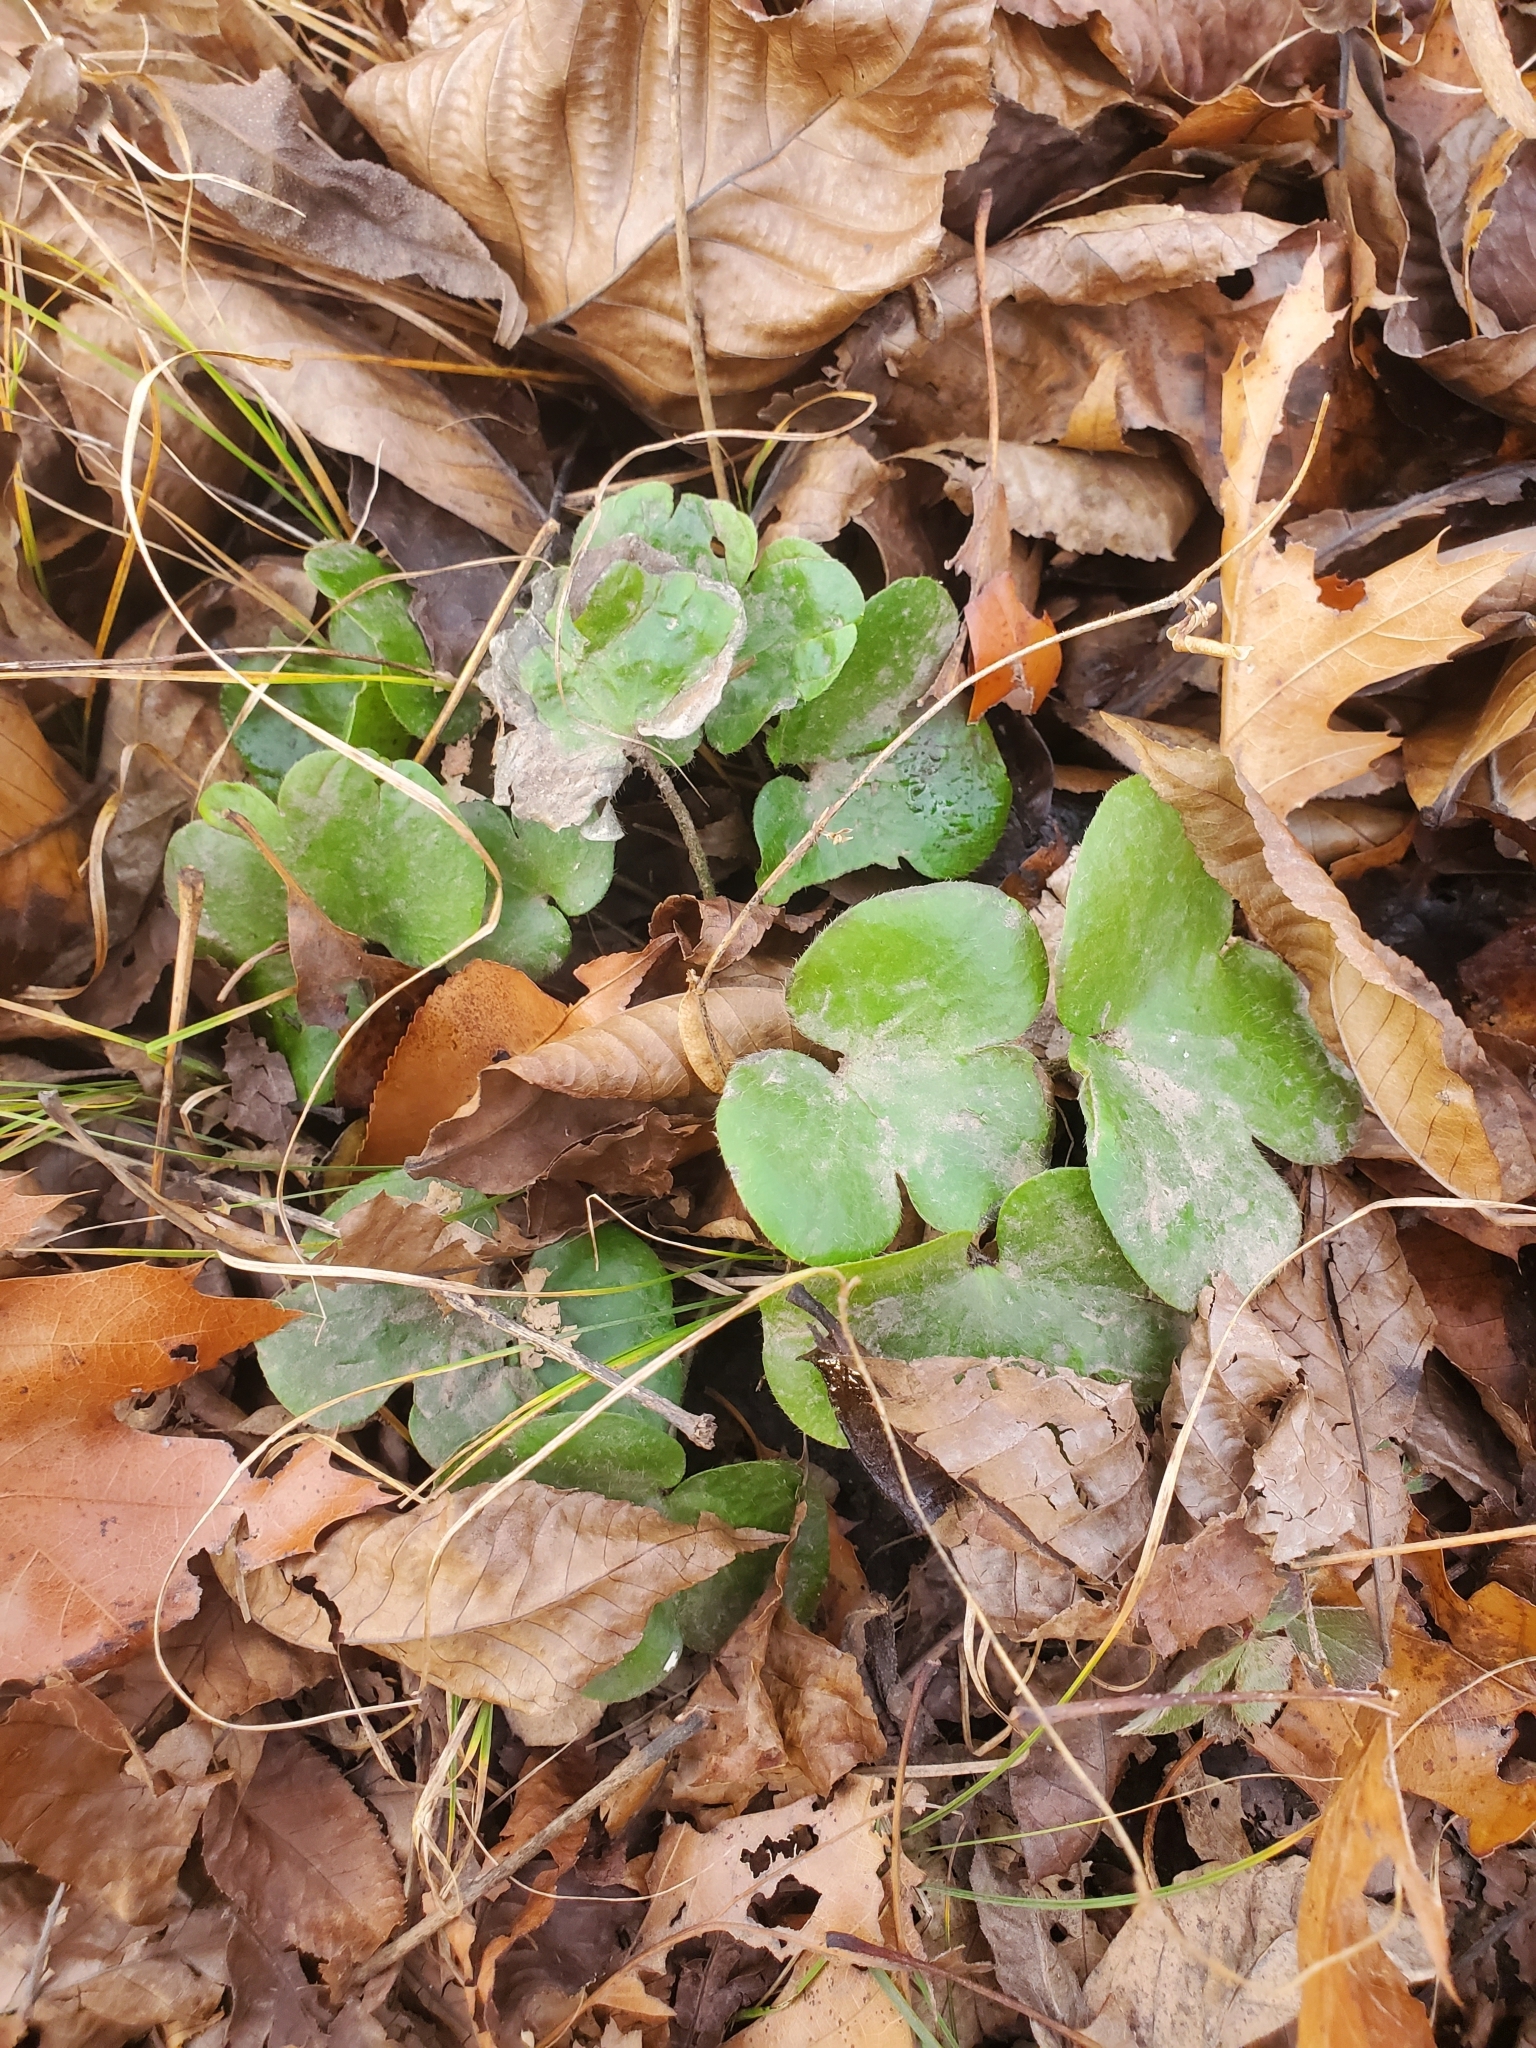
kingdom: Plantae
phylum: Tracheophyta
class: Magnoliopsida
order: Ranunculales
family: Ranunculaceae
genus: Hepatica
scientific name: Hepatica americana
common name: American hepatica
